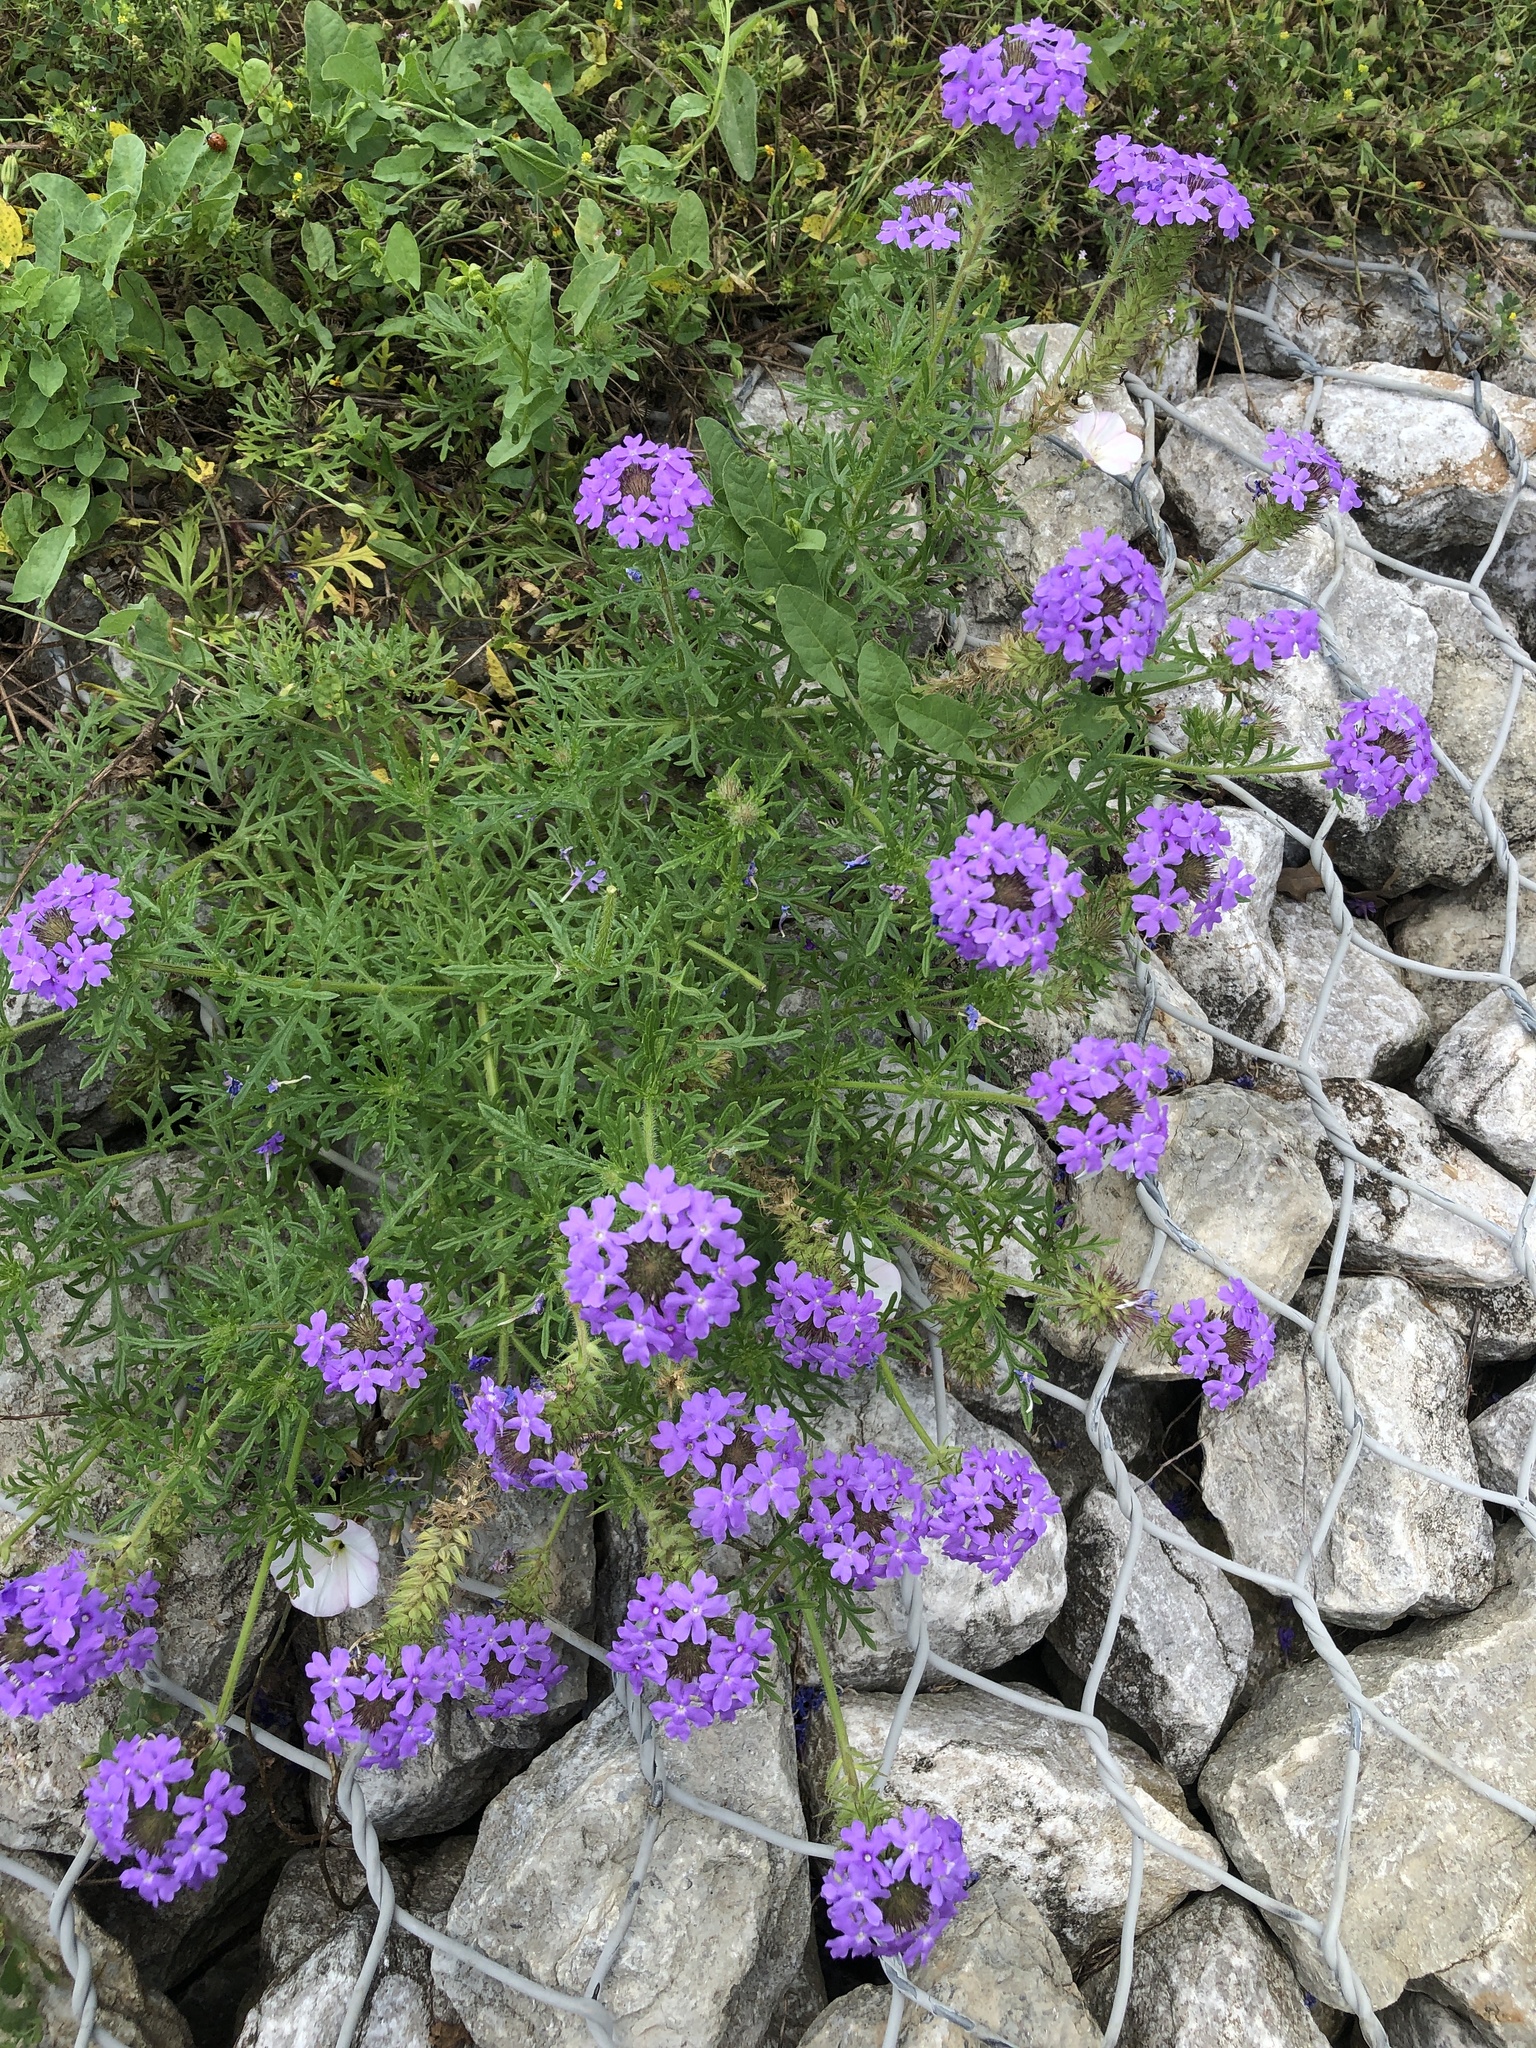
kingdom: Plantae
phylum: Tracheophyta
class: Magnoliopsida
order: Lamiales
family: Verbenaceae
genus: Verbena
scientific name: Verbena bipinnatifida
